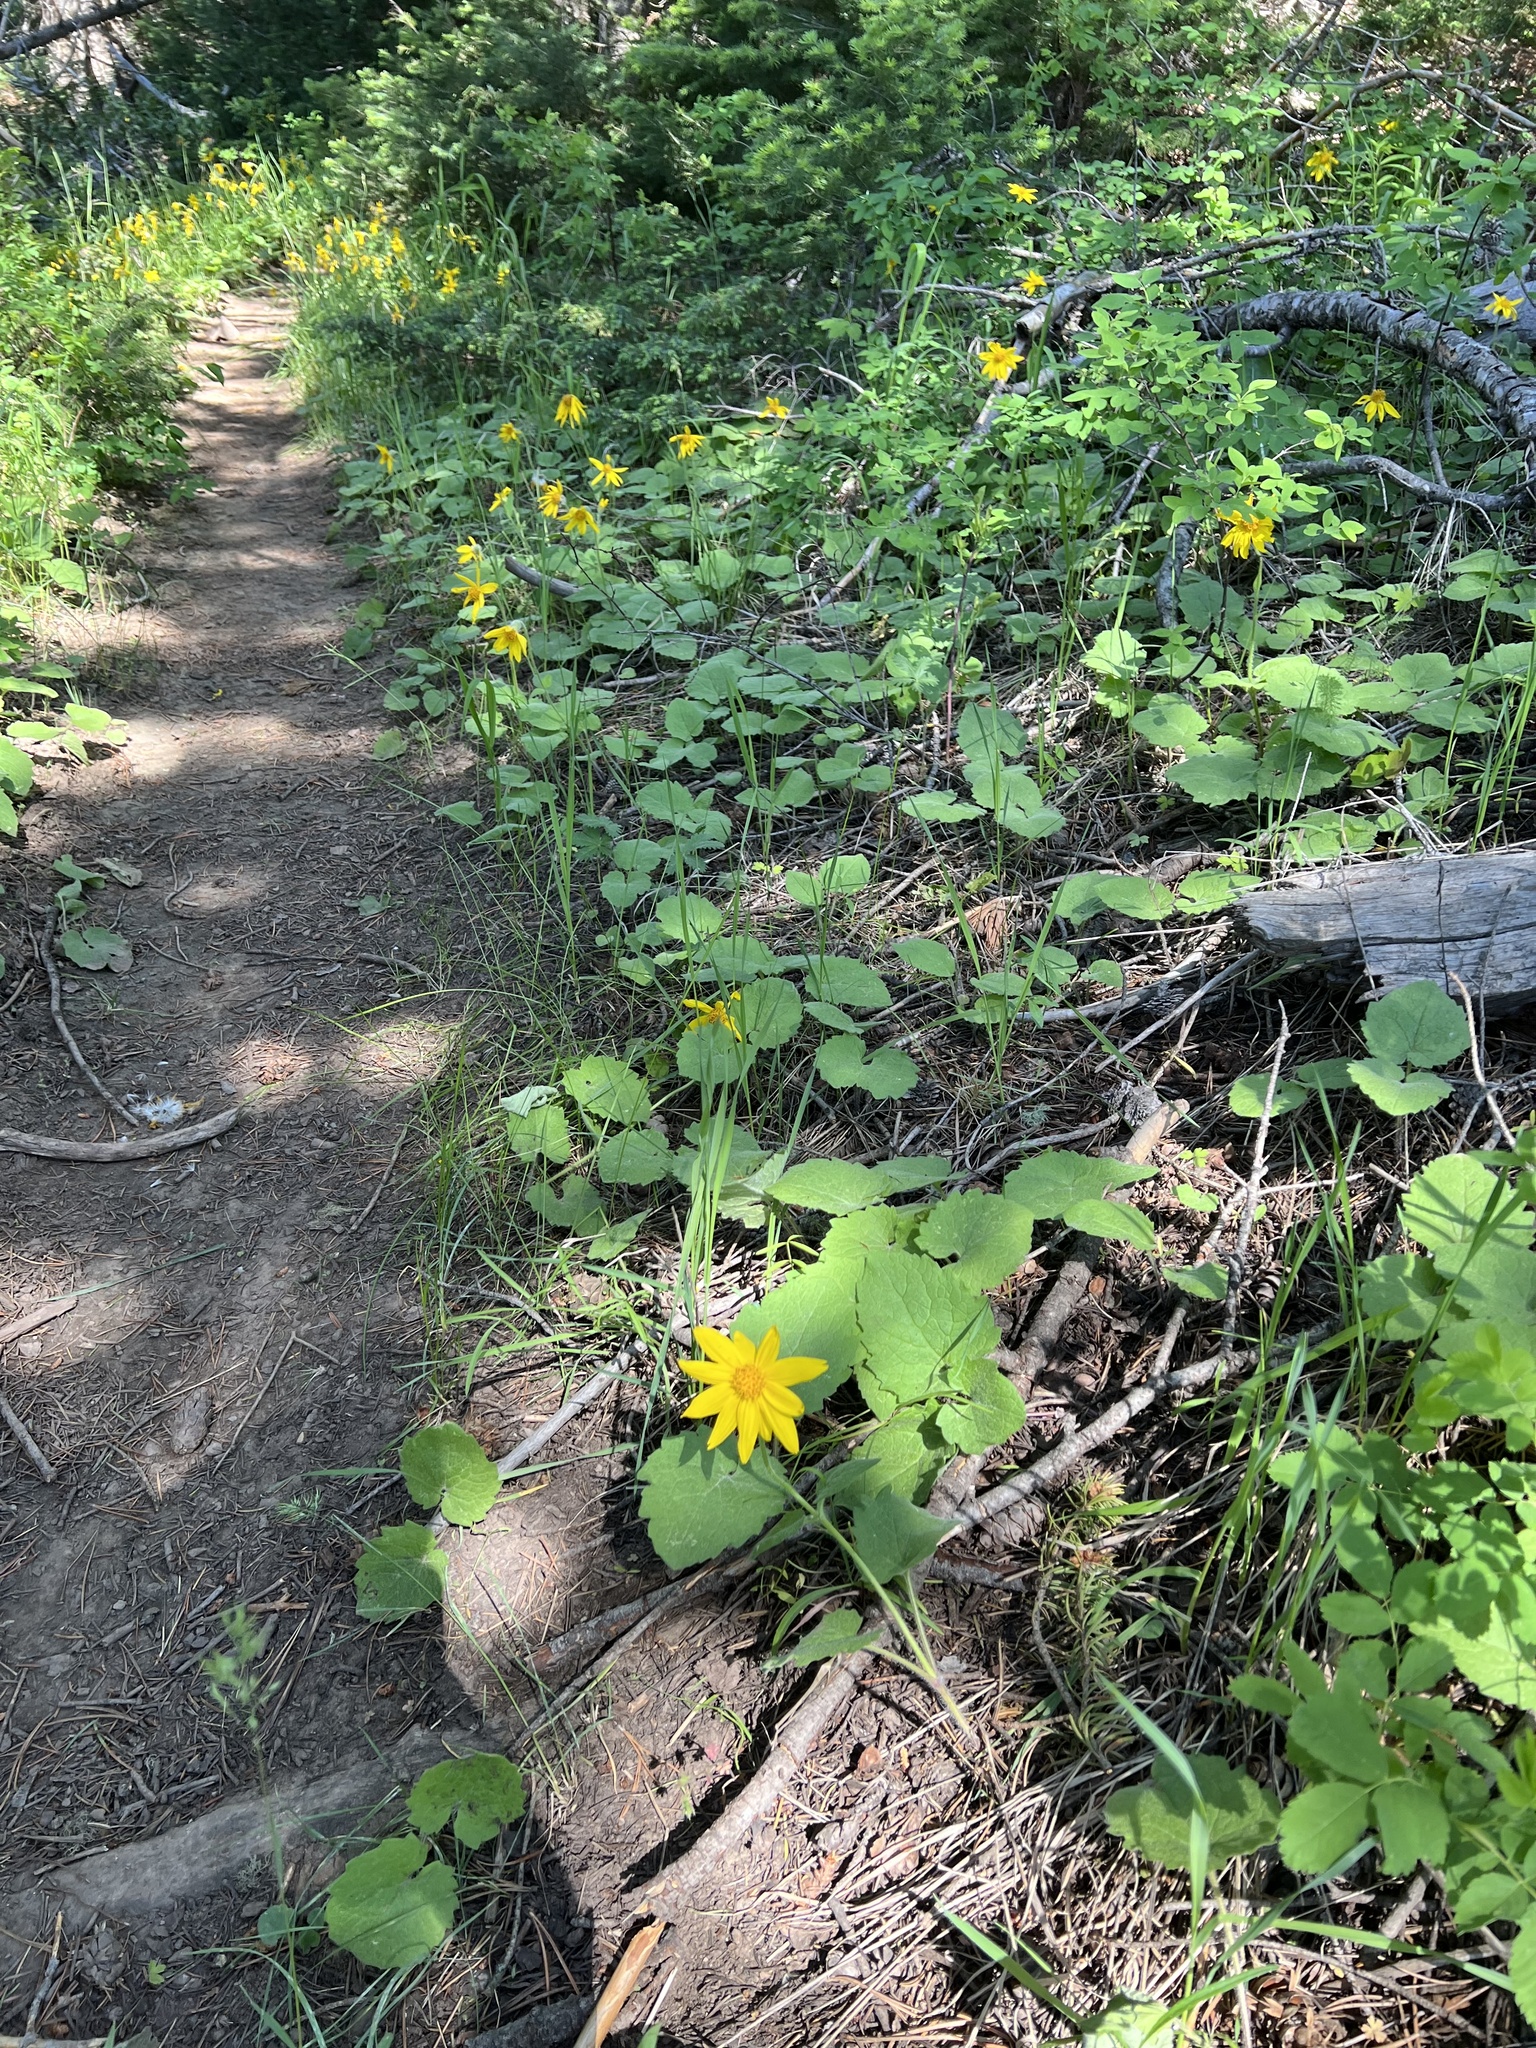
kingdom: Plantae
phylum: Tracheophyta
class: Magnoliopsida
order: Asterales
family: Asteraceae
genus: Arnica
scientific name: Arnica cordifolia
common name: Heart-leaf arnica
